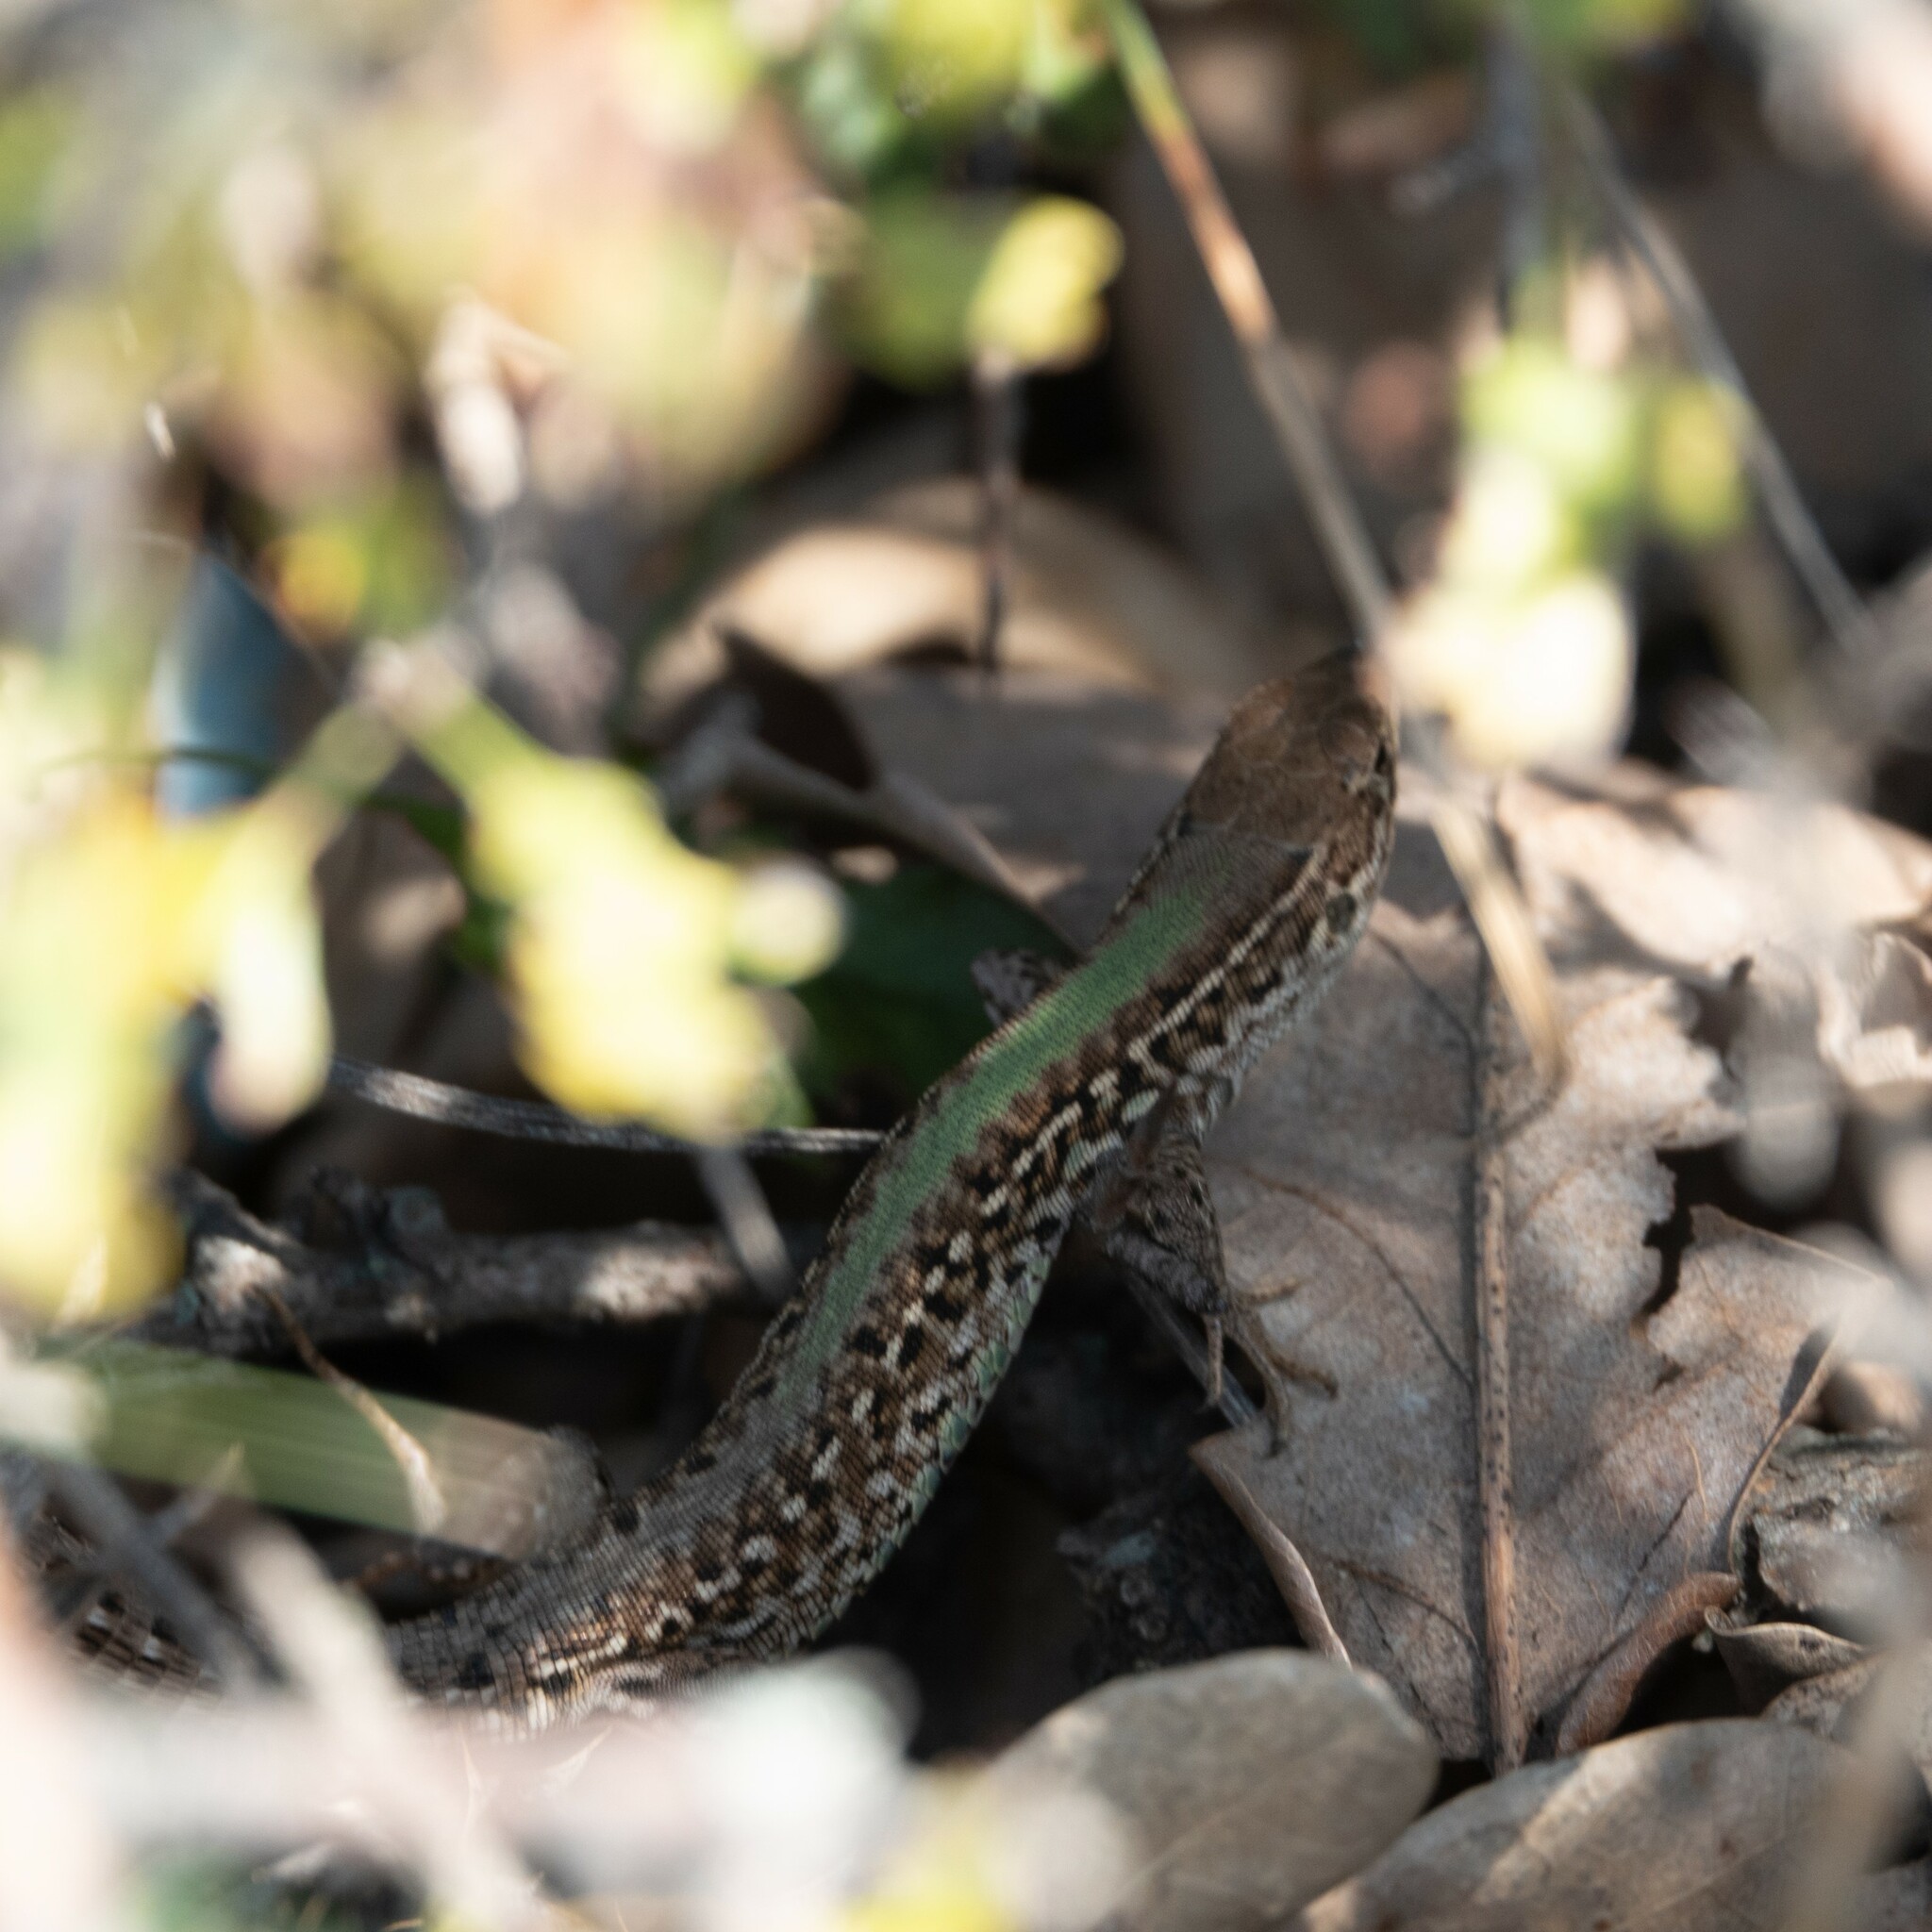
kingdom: Animalia
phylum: Chordata
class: Squamata
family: Lacertidae
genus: Podarcis
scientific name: Podarcis tauricus
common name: Balkan wall lizard
